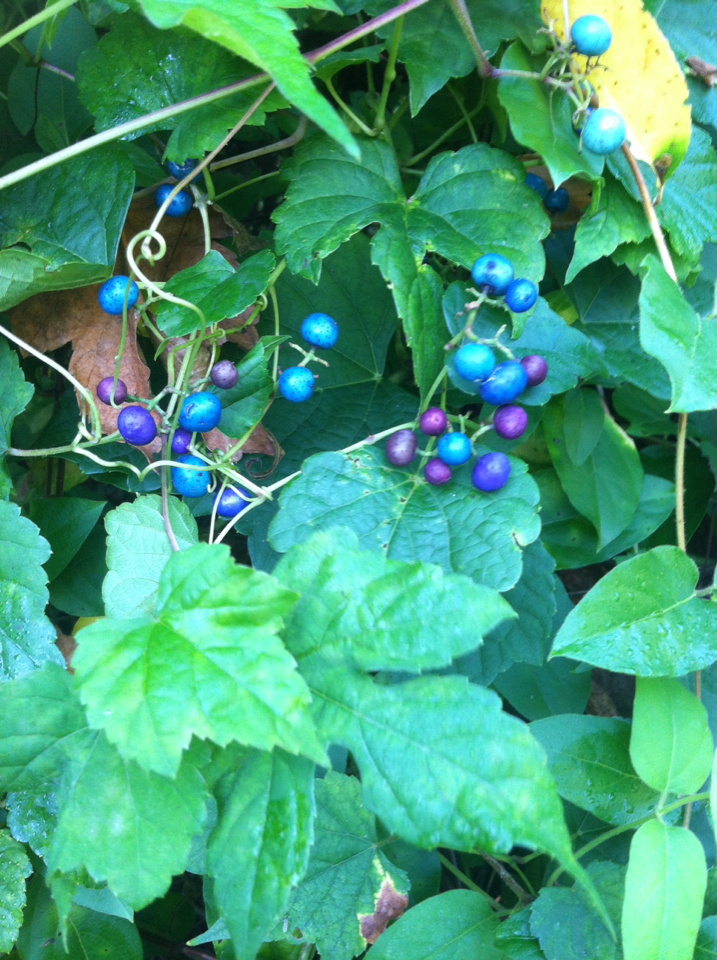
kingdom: Plantae
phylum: Tracheophyta
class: Magnoliopsida
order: Vitales
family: Vitaceae
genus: Ampelopsis
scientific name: Ampelopsis glandulosa
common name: Amur peppervine
